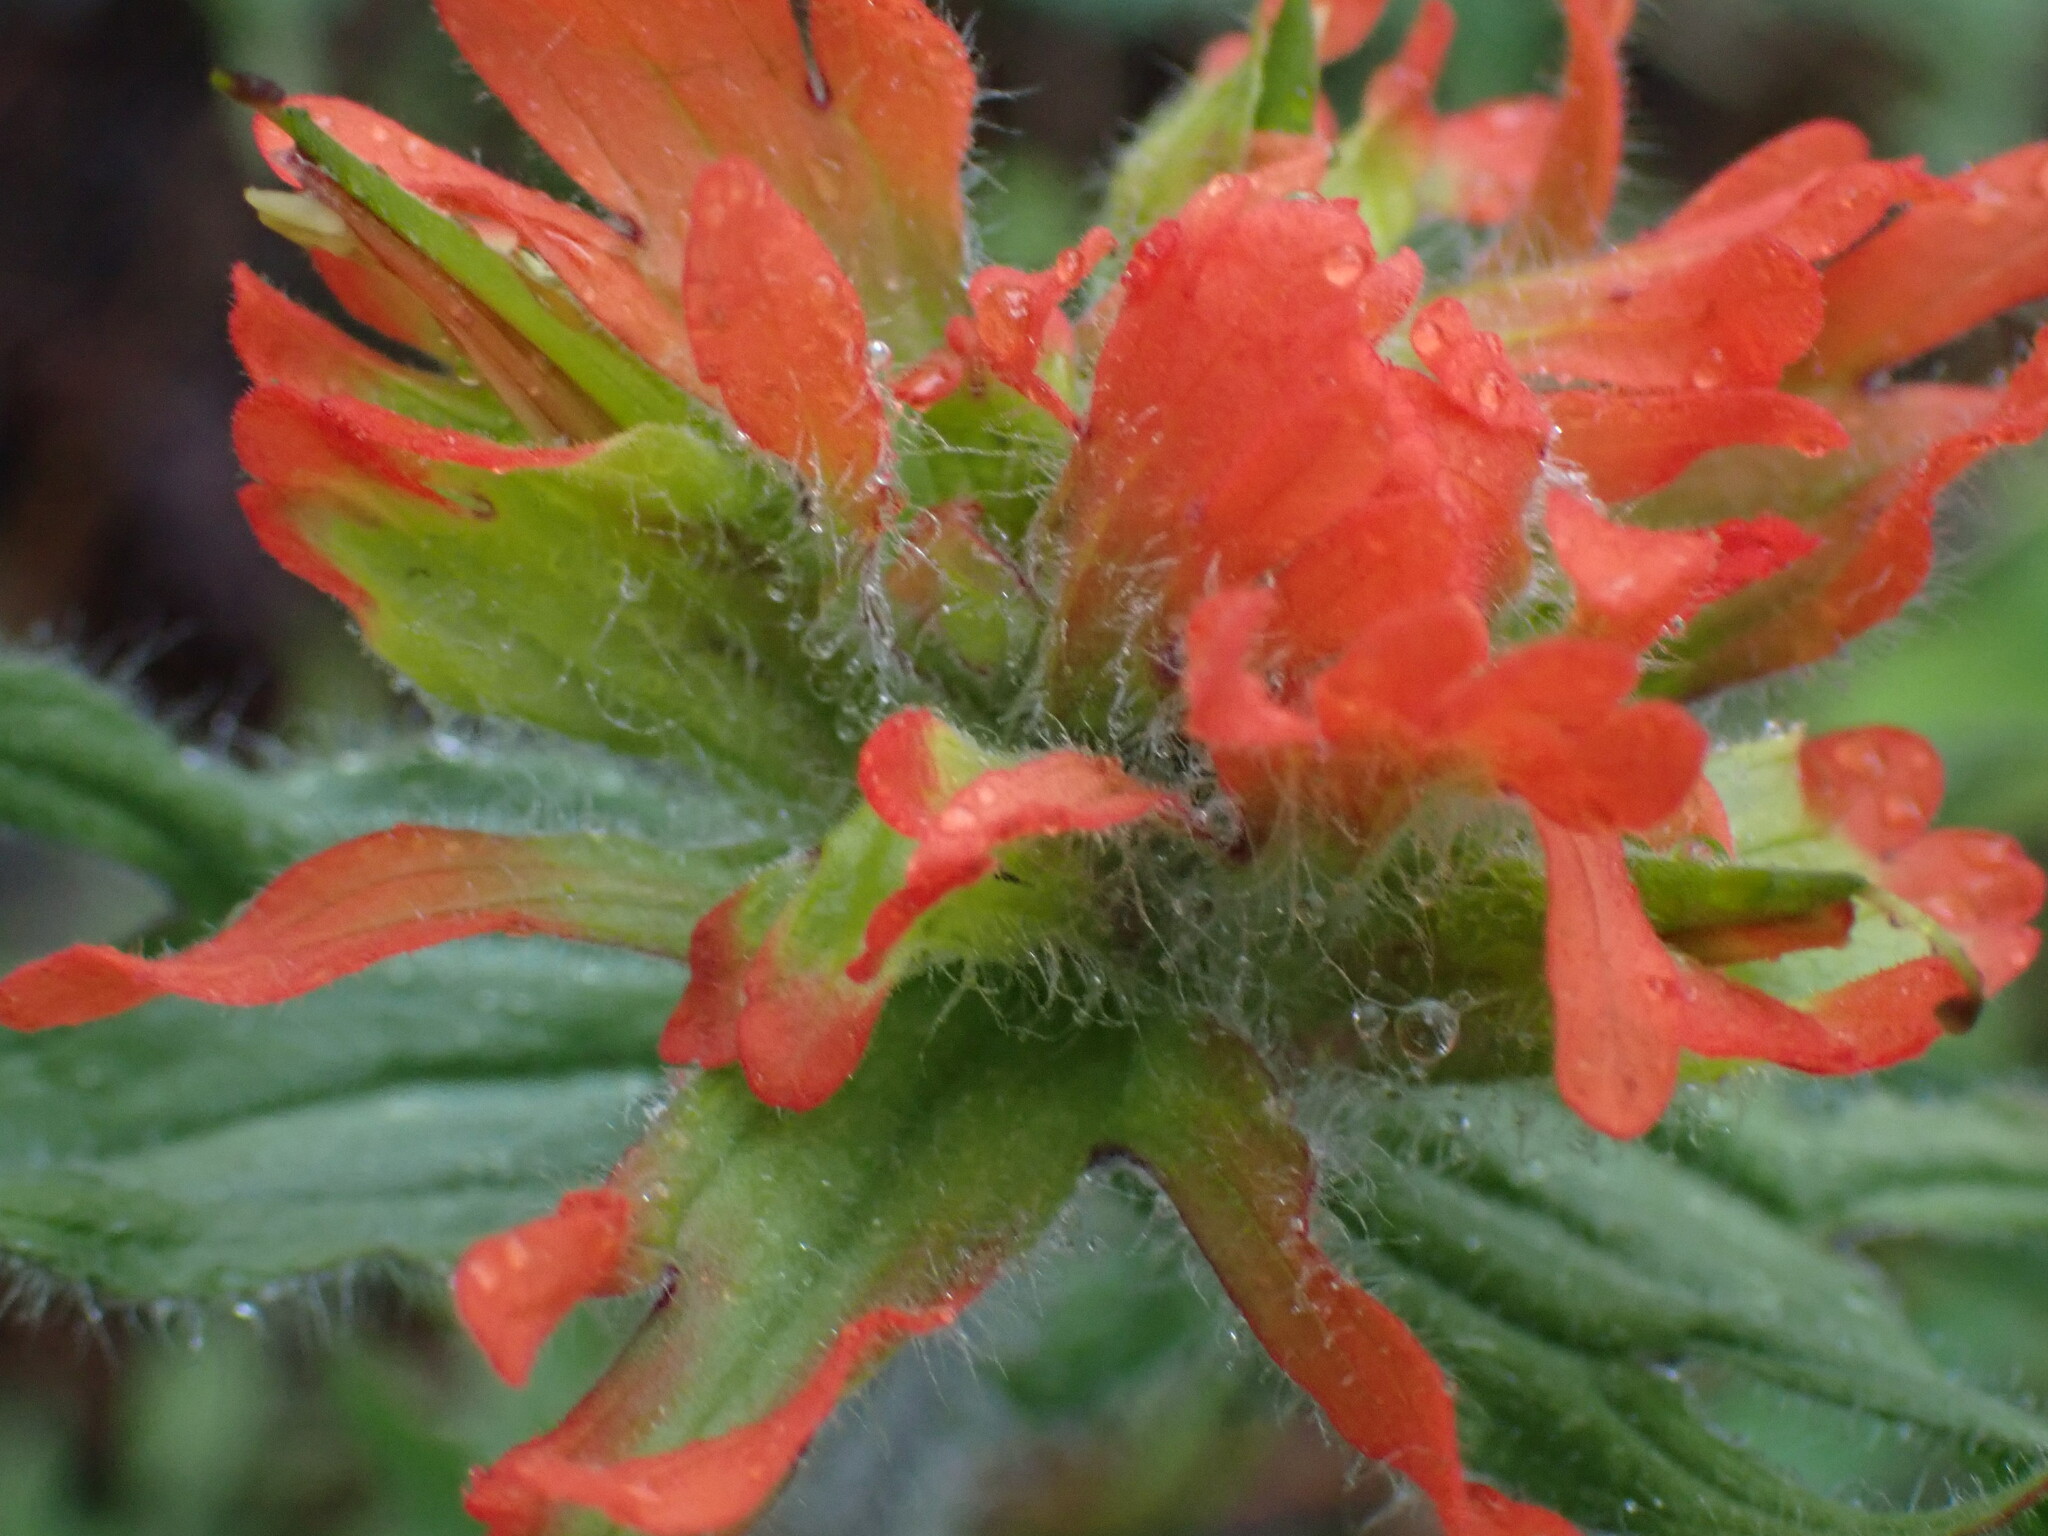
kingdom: Plantae
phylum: Tracheophyta
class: Magnoliopsida
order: Lamiales
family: Orobanchaceae
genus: Castilleja
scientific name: Castilleja hispida
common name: Bristly paintbrush
